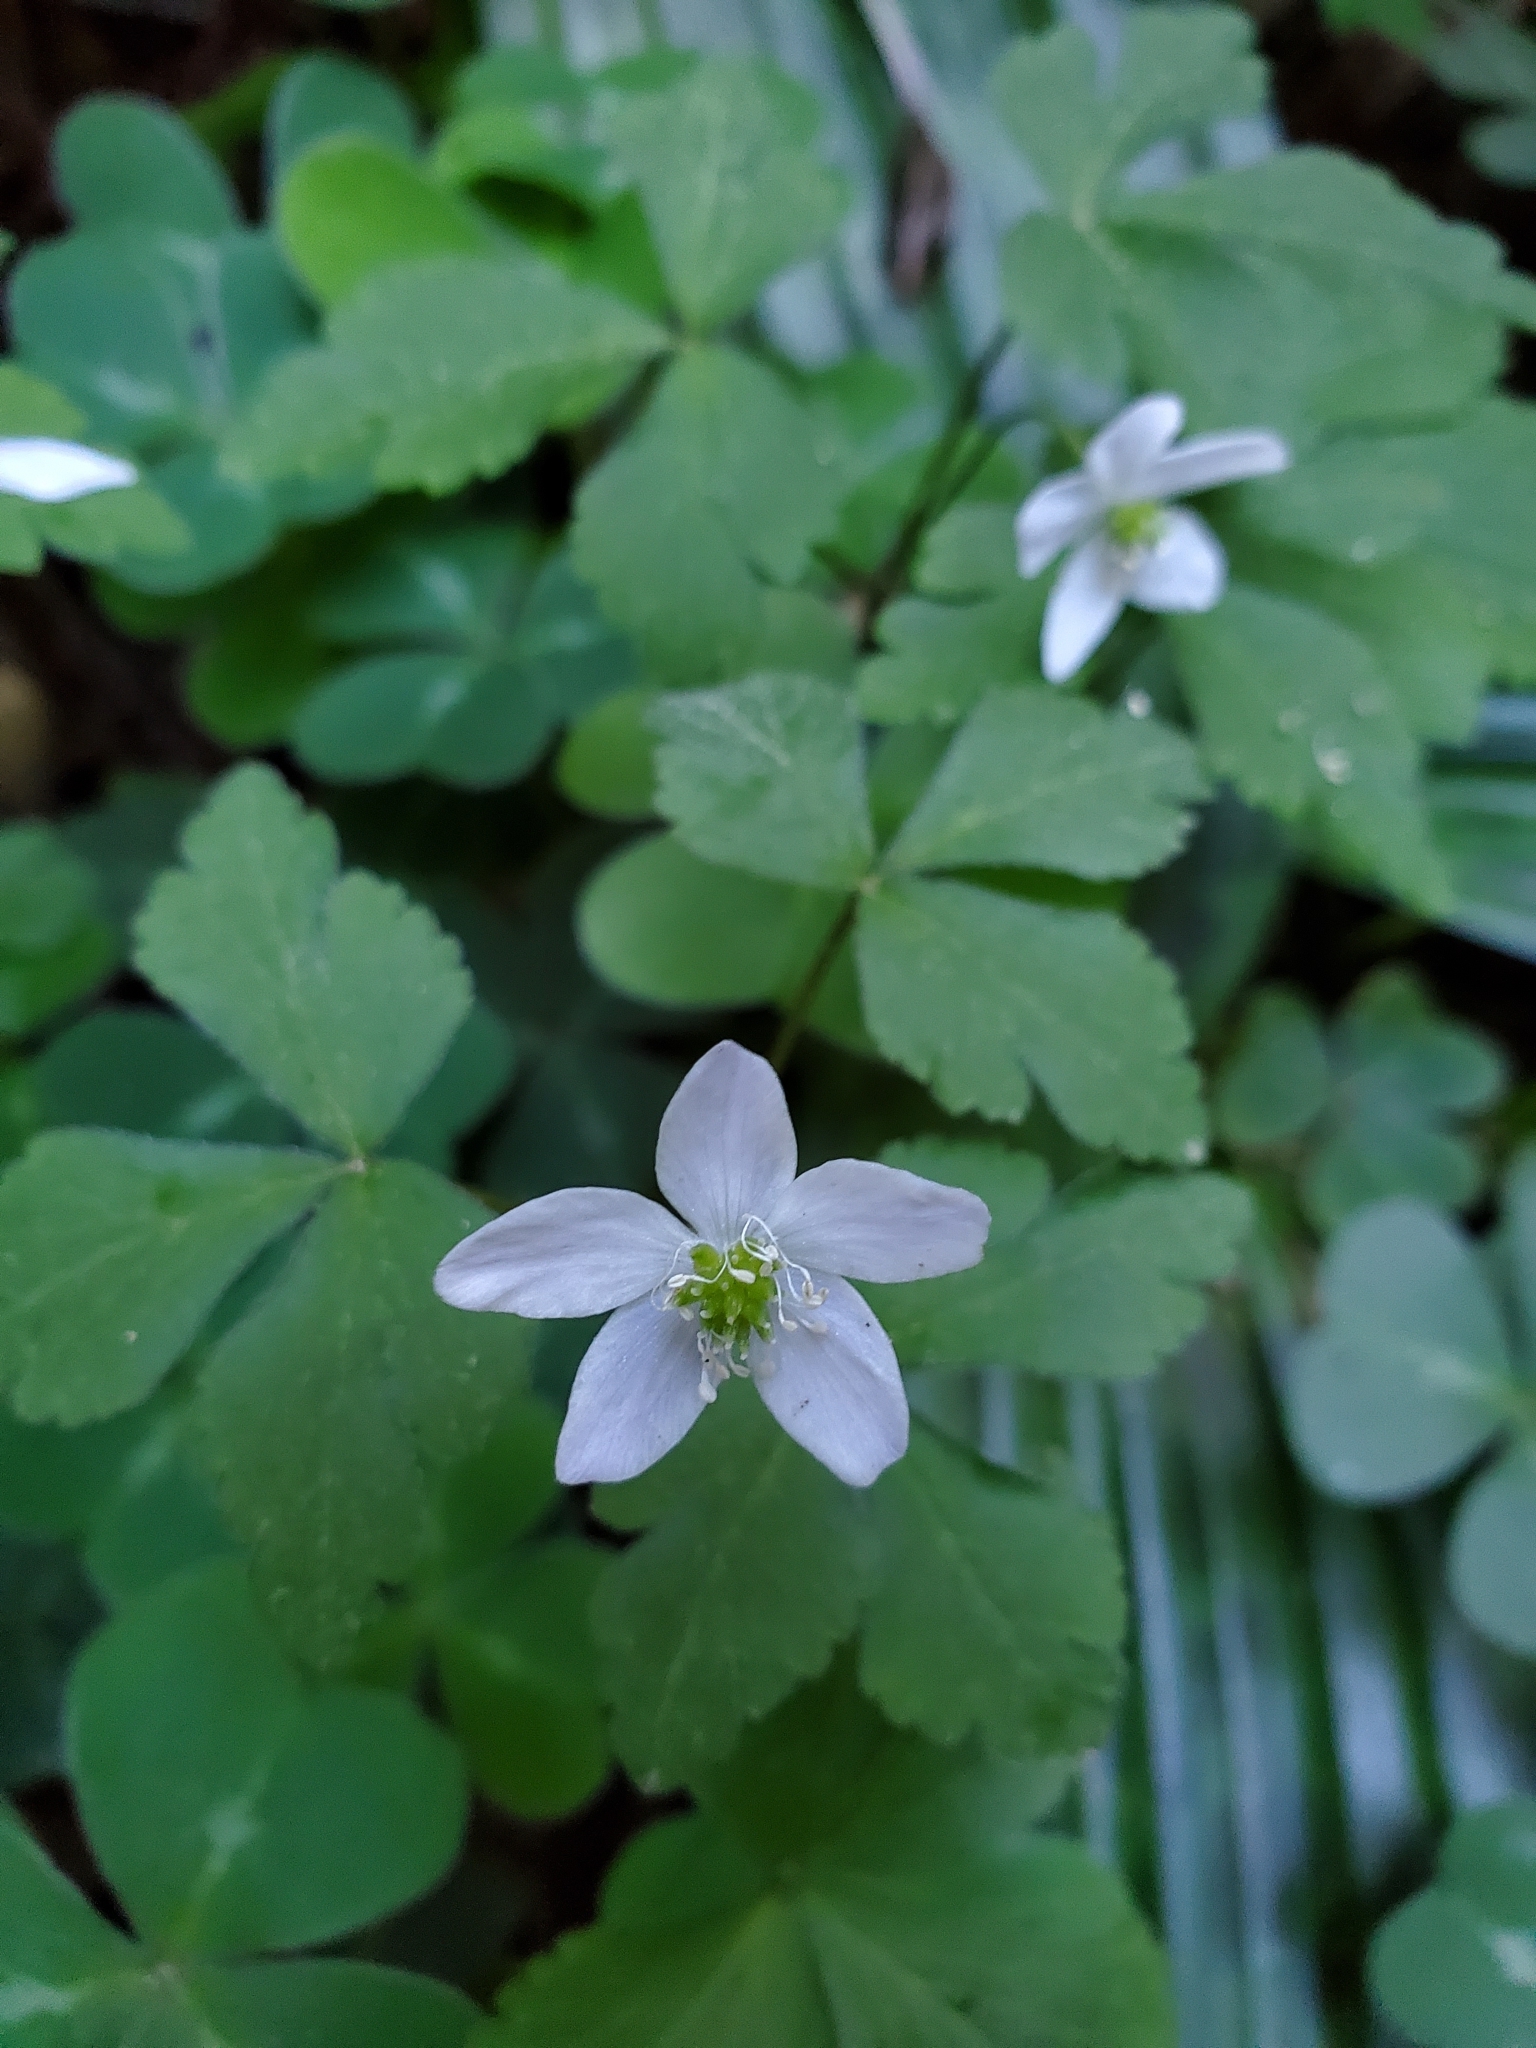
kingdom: Plantae
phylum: Tracheophyta
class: Magnoliopsida
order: Ranunculales
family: Ranunculaceae
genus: Anemone
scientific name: Anemone
